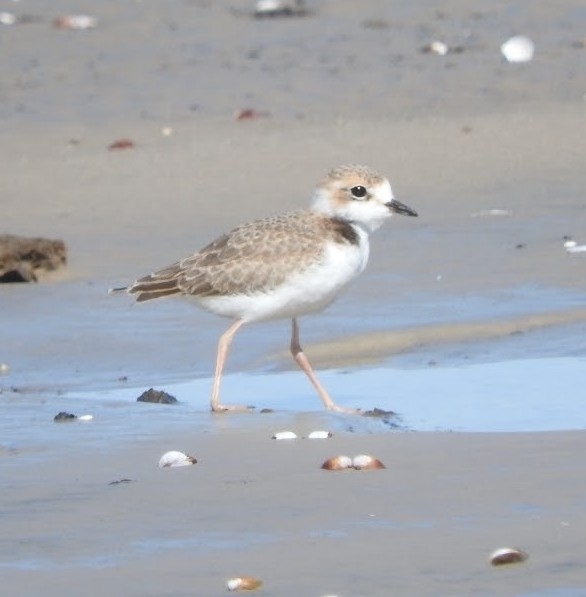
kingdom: Animalia
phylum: Chordata
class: Aves
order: Charadriiformes
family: Charadriidae
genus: Anarhynchus
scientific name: Anarhynchus
